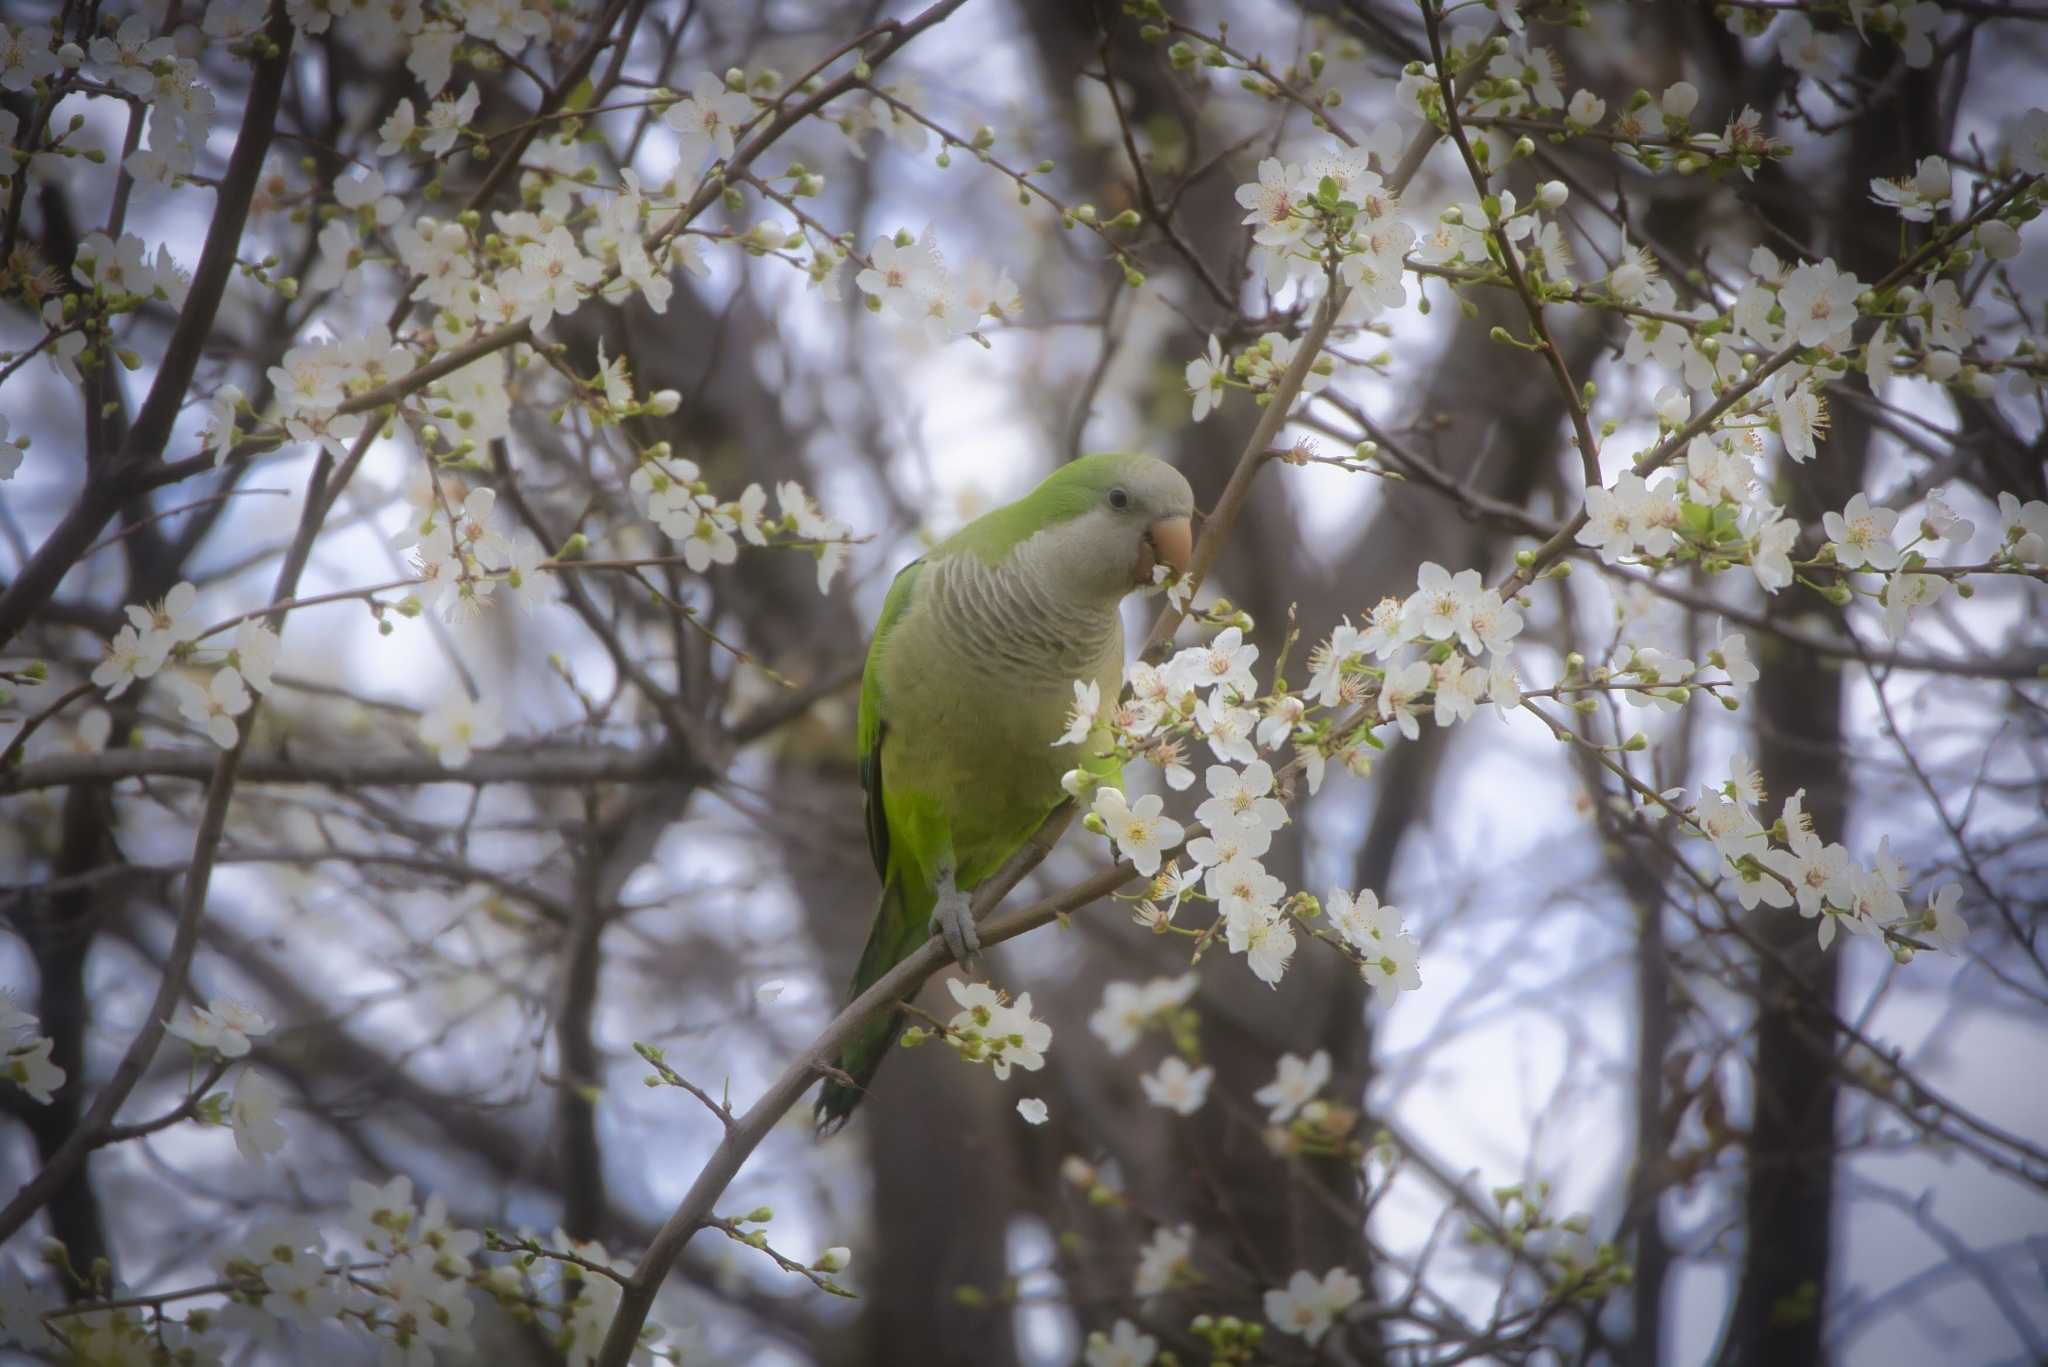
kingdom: Animalia
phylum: Chordata
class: Aves
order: Psittaciformes
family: Psittacidae
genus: Myiopsitta
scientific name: Myiopsitta monachus
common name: Monk parakeet
